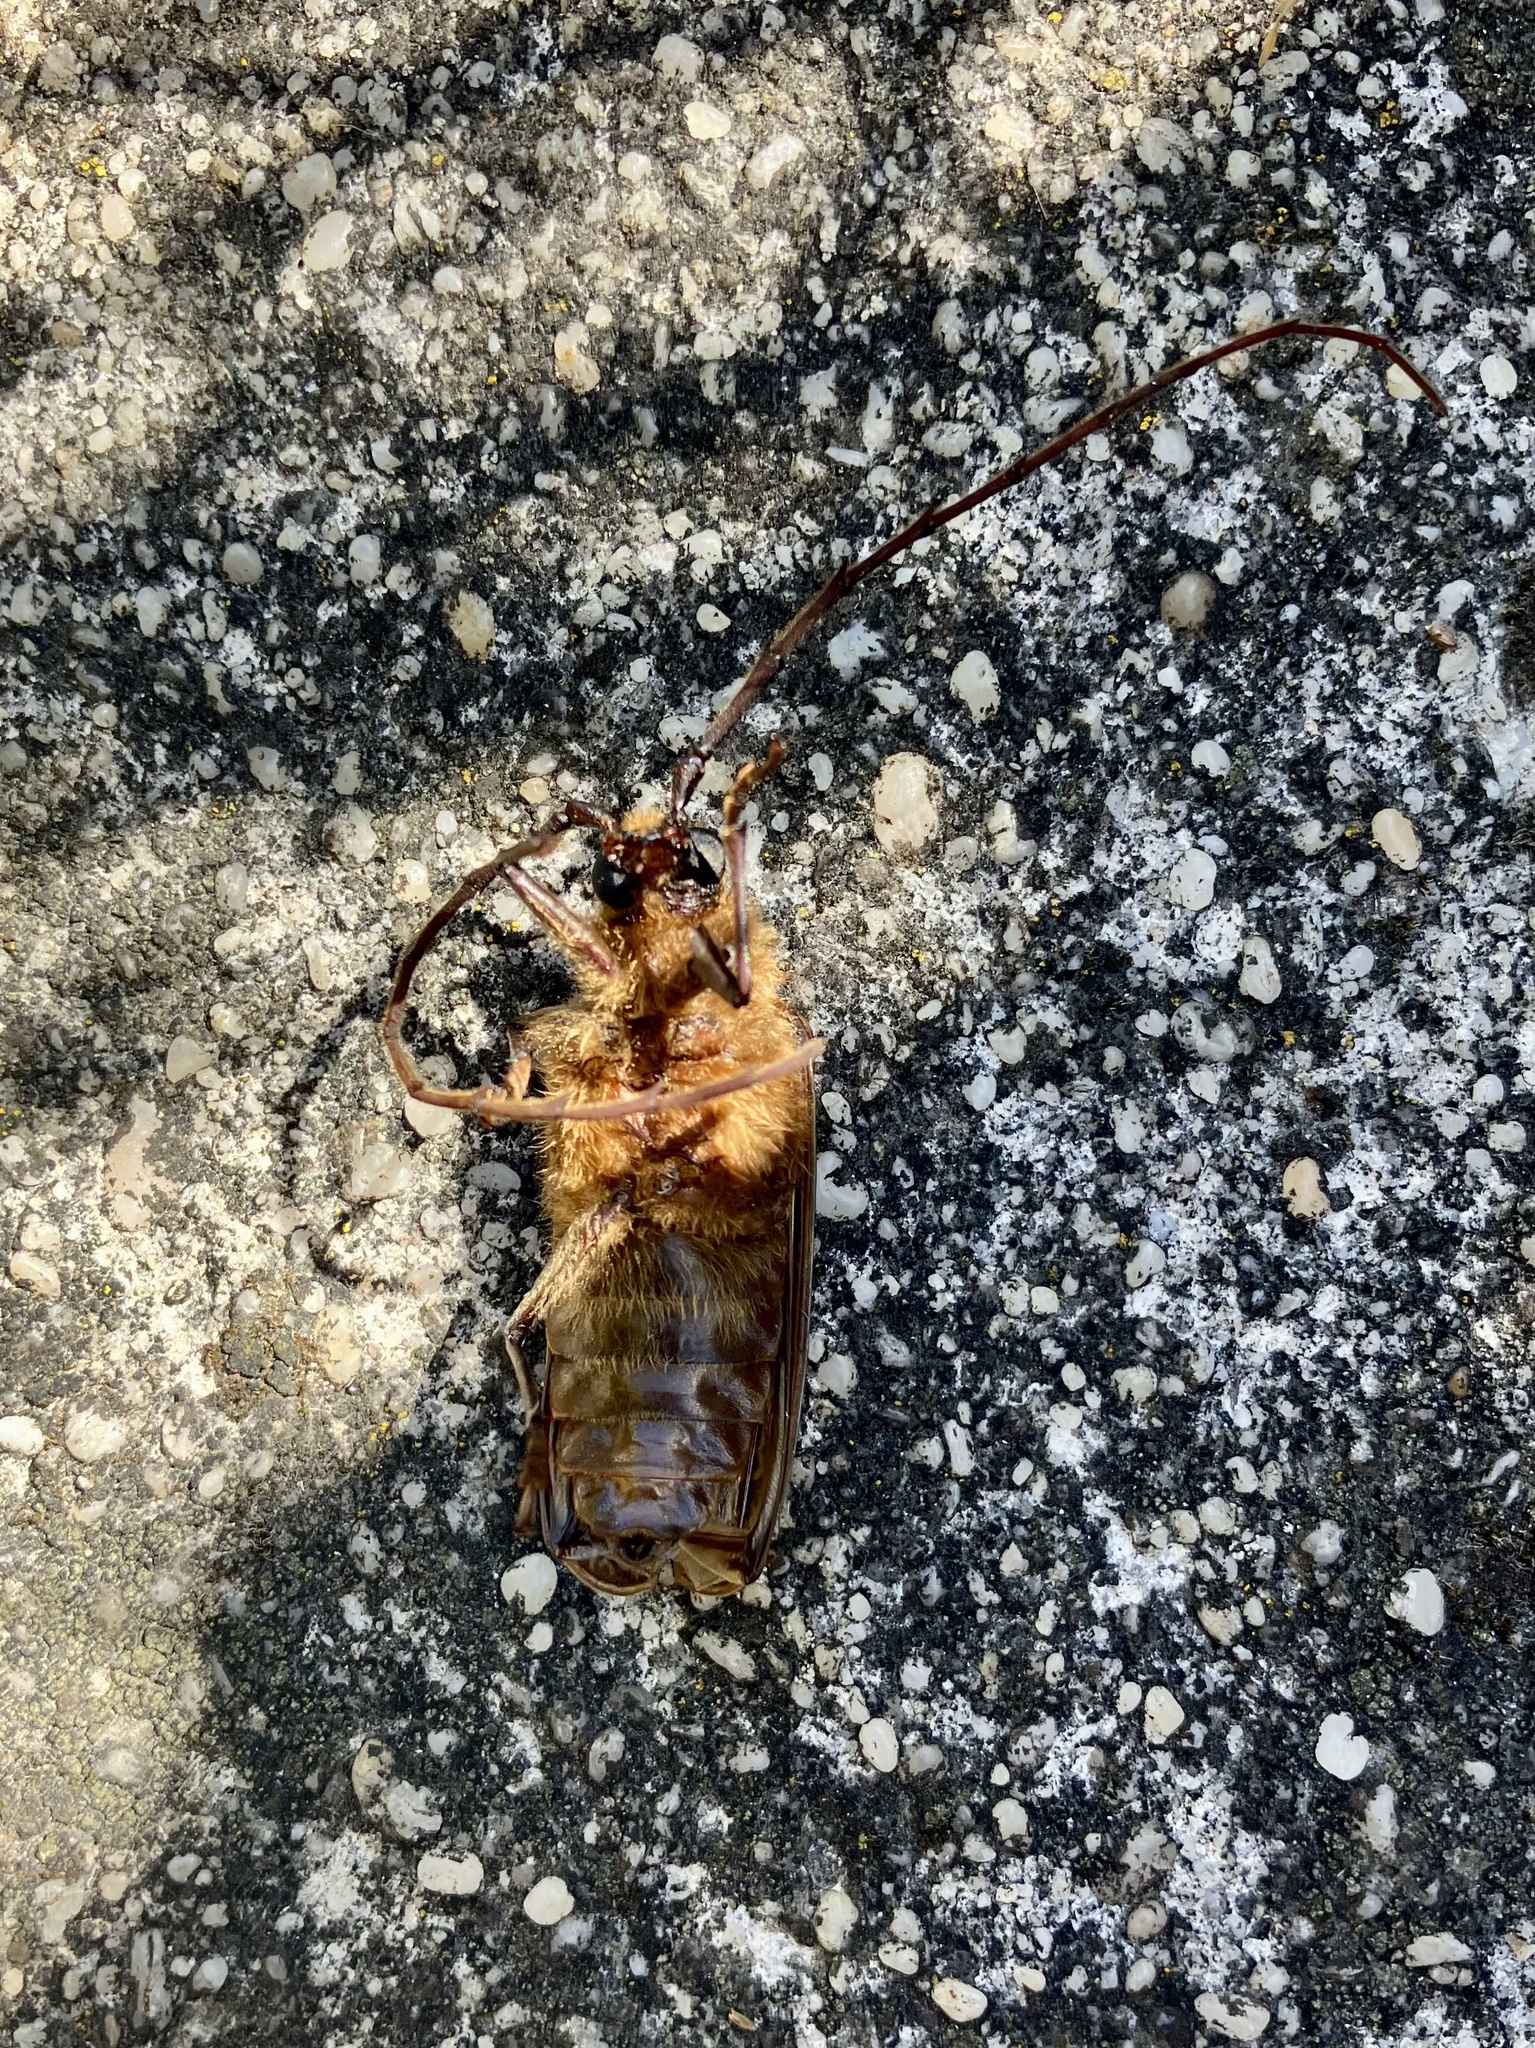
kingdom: Animalia
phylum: Arthropoda
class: Insecta
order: Coleoptera
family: Cerambycidae
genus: Prionoplus
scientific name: Prionoplus reticularis
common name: Huhu beetle
